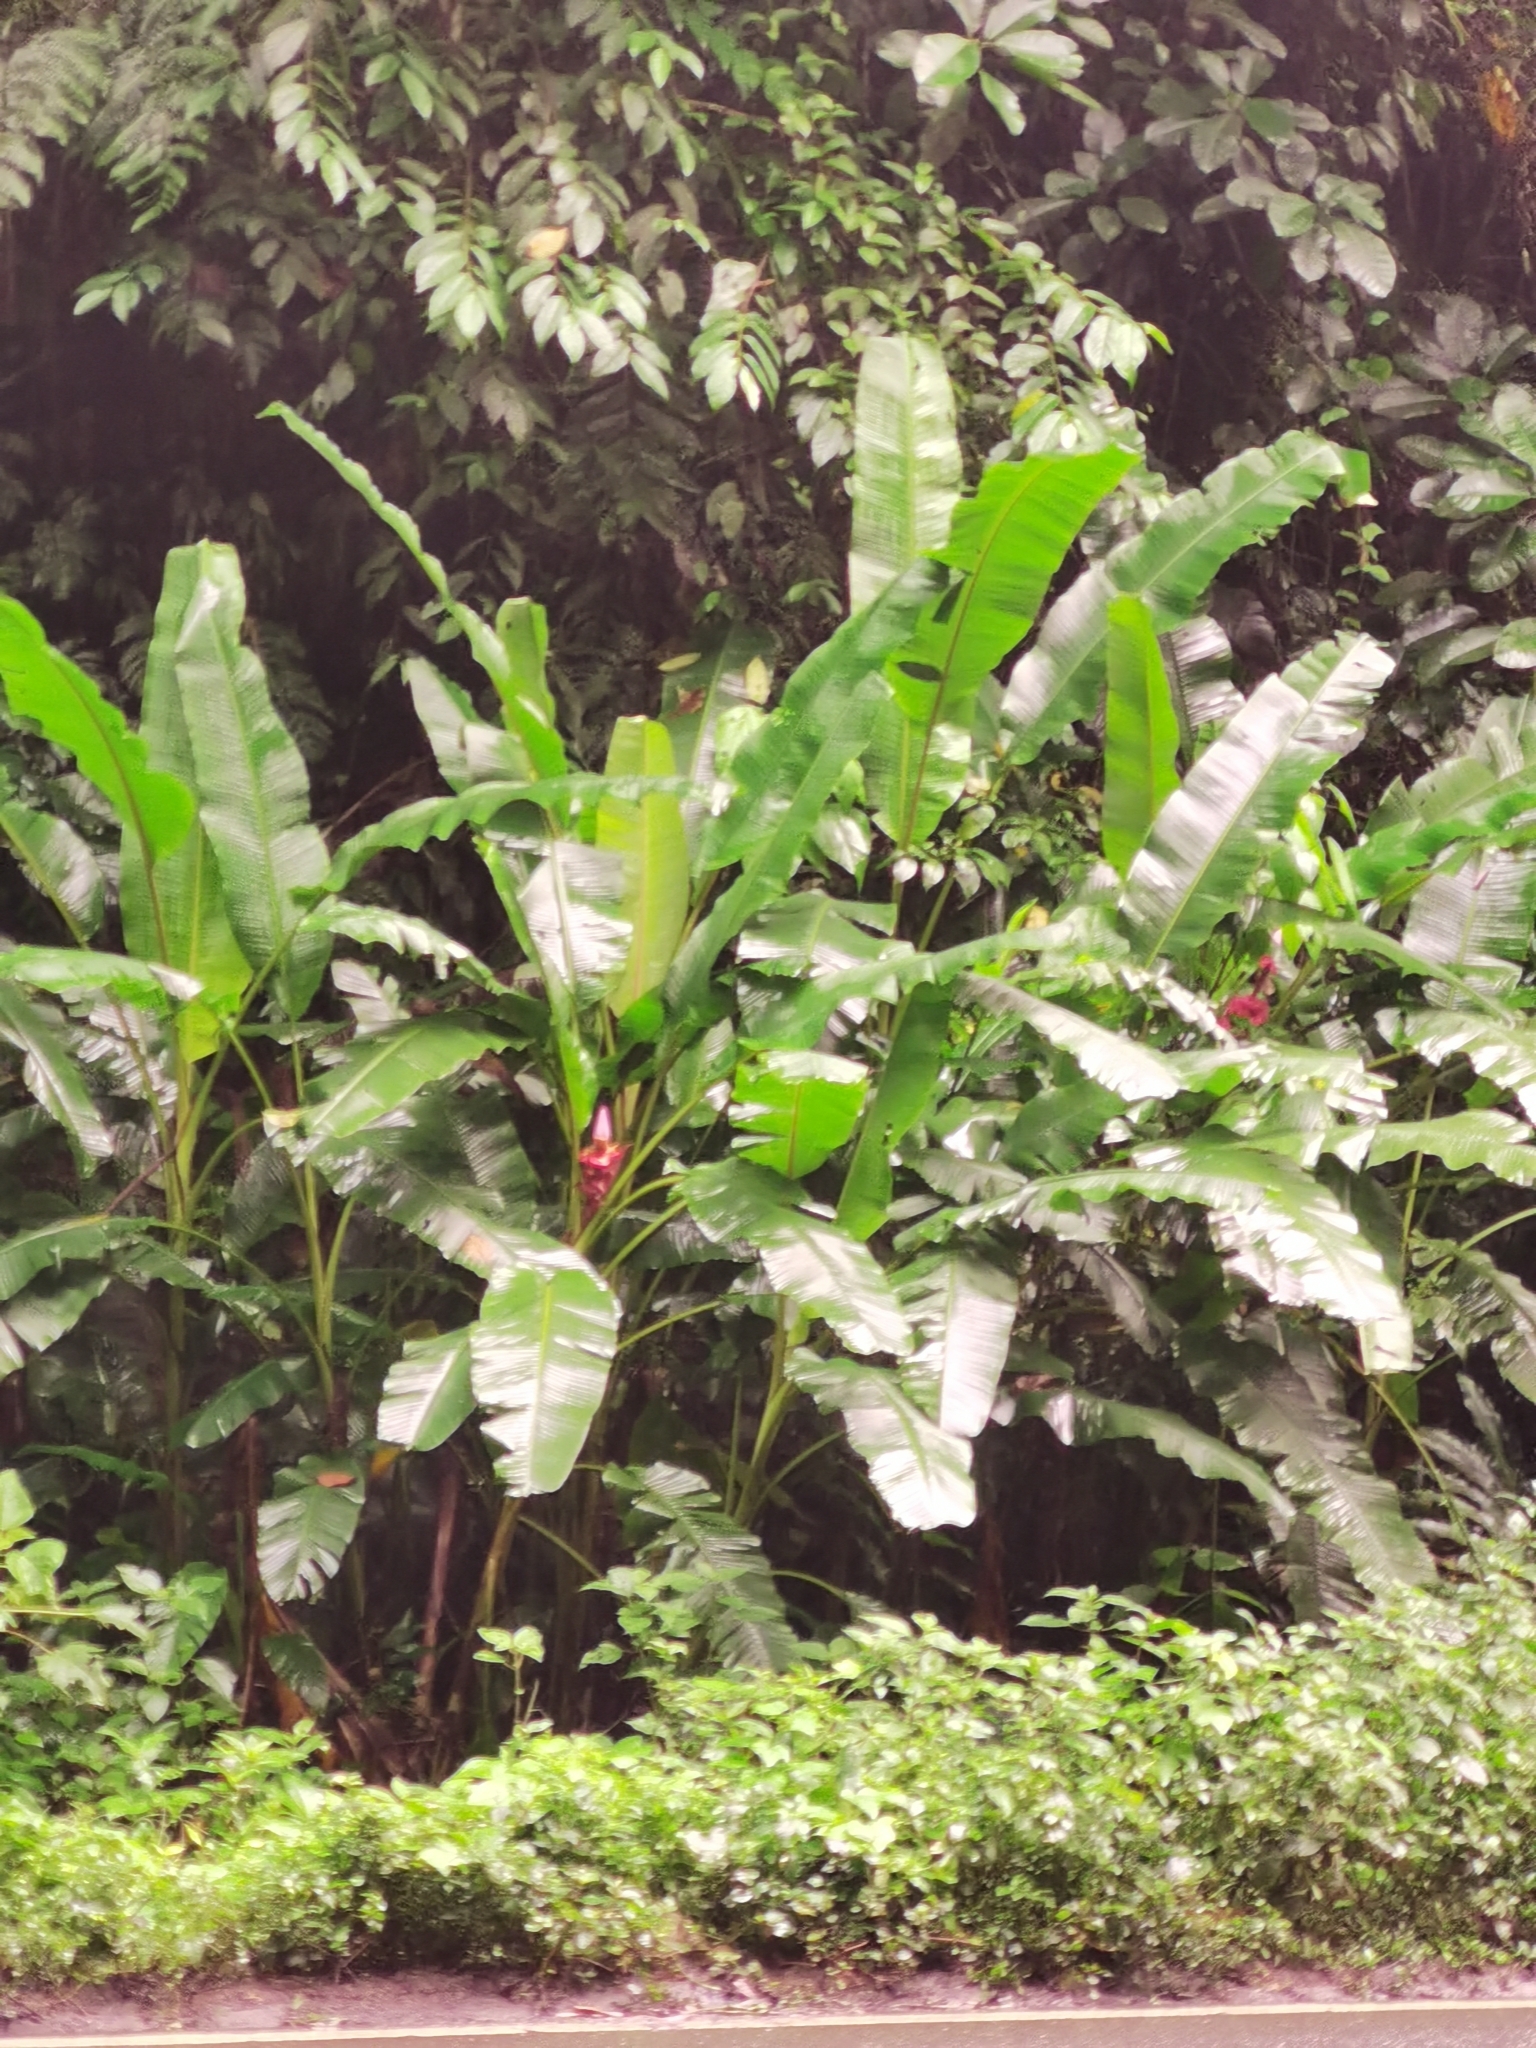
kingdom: Plantae
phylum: Tracheophyta
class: Liliopsida
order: Zingiberales
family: Musaceae
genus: Musa
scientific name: Musa velutina
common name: Pink velvet banana
